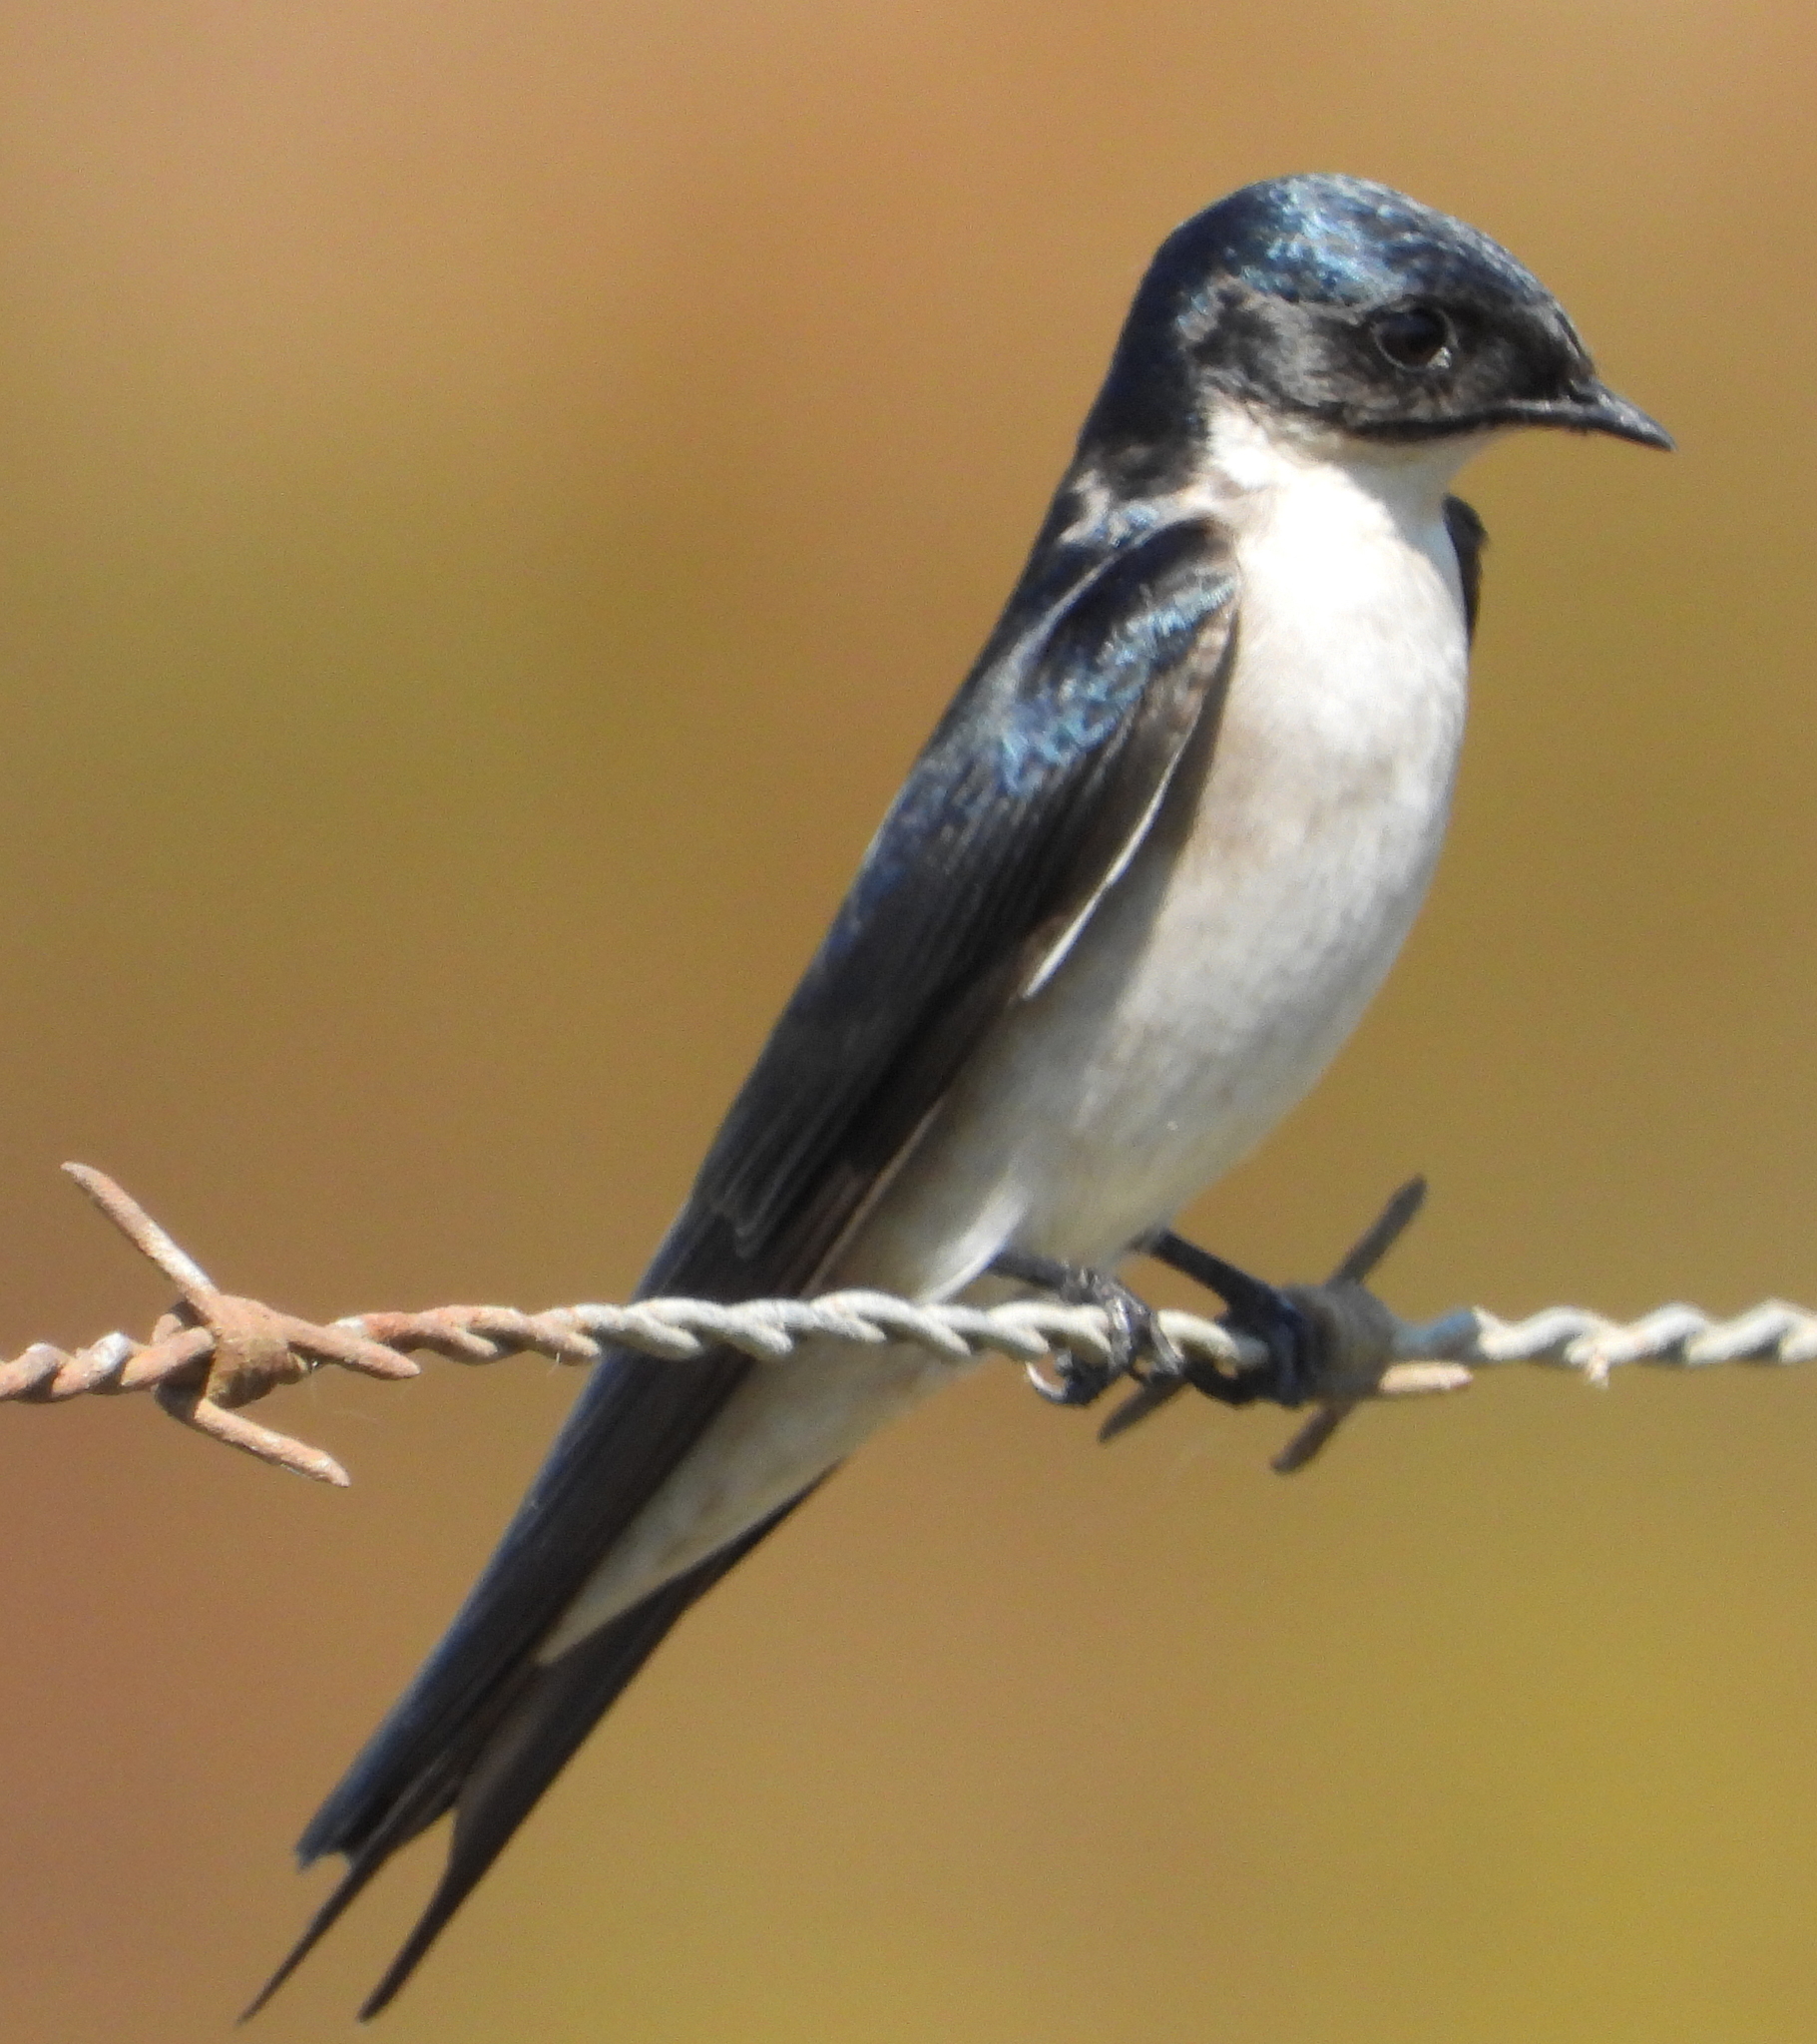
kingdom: Animalia
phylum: Chordata
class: Aves
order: Passeriformes
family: Hirundinidae
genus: Hirundo
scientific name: Hirundo dimidiata
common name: Pearl-breasted swallow
